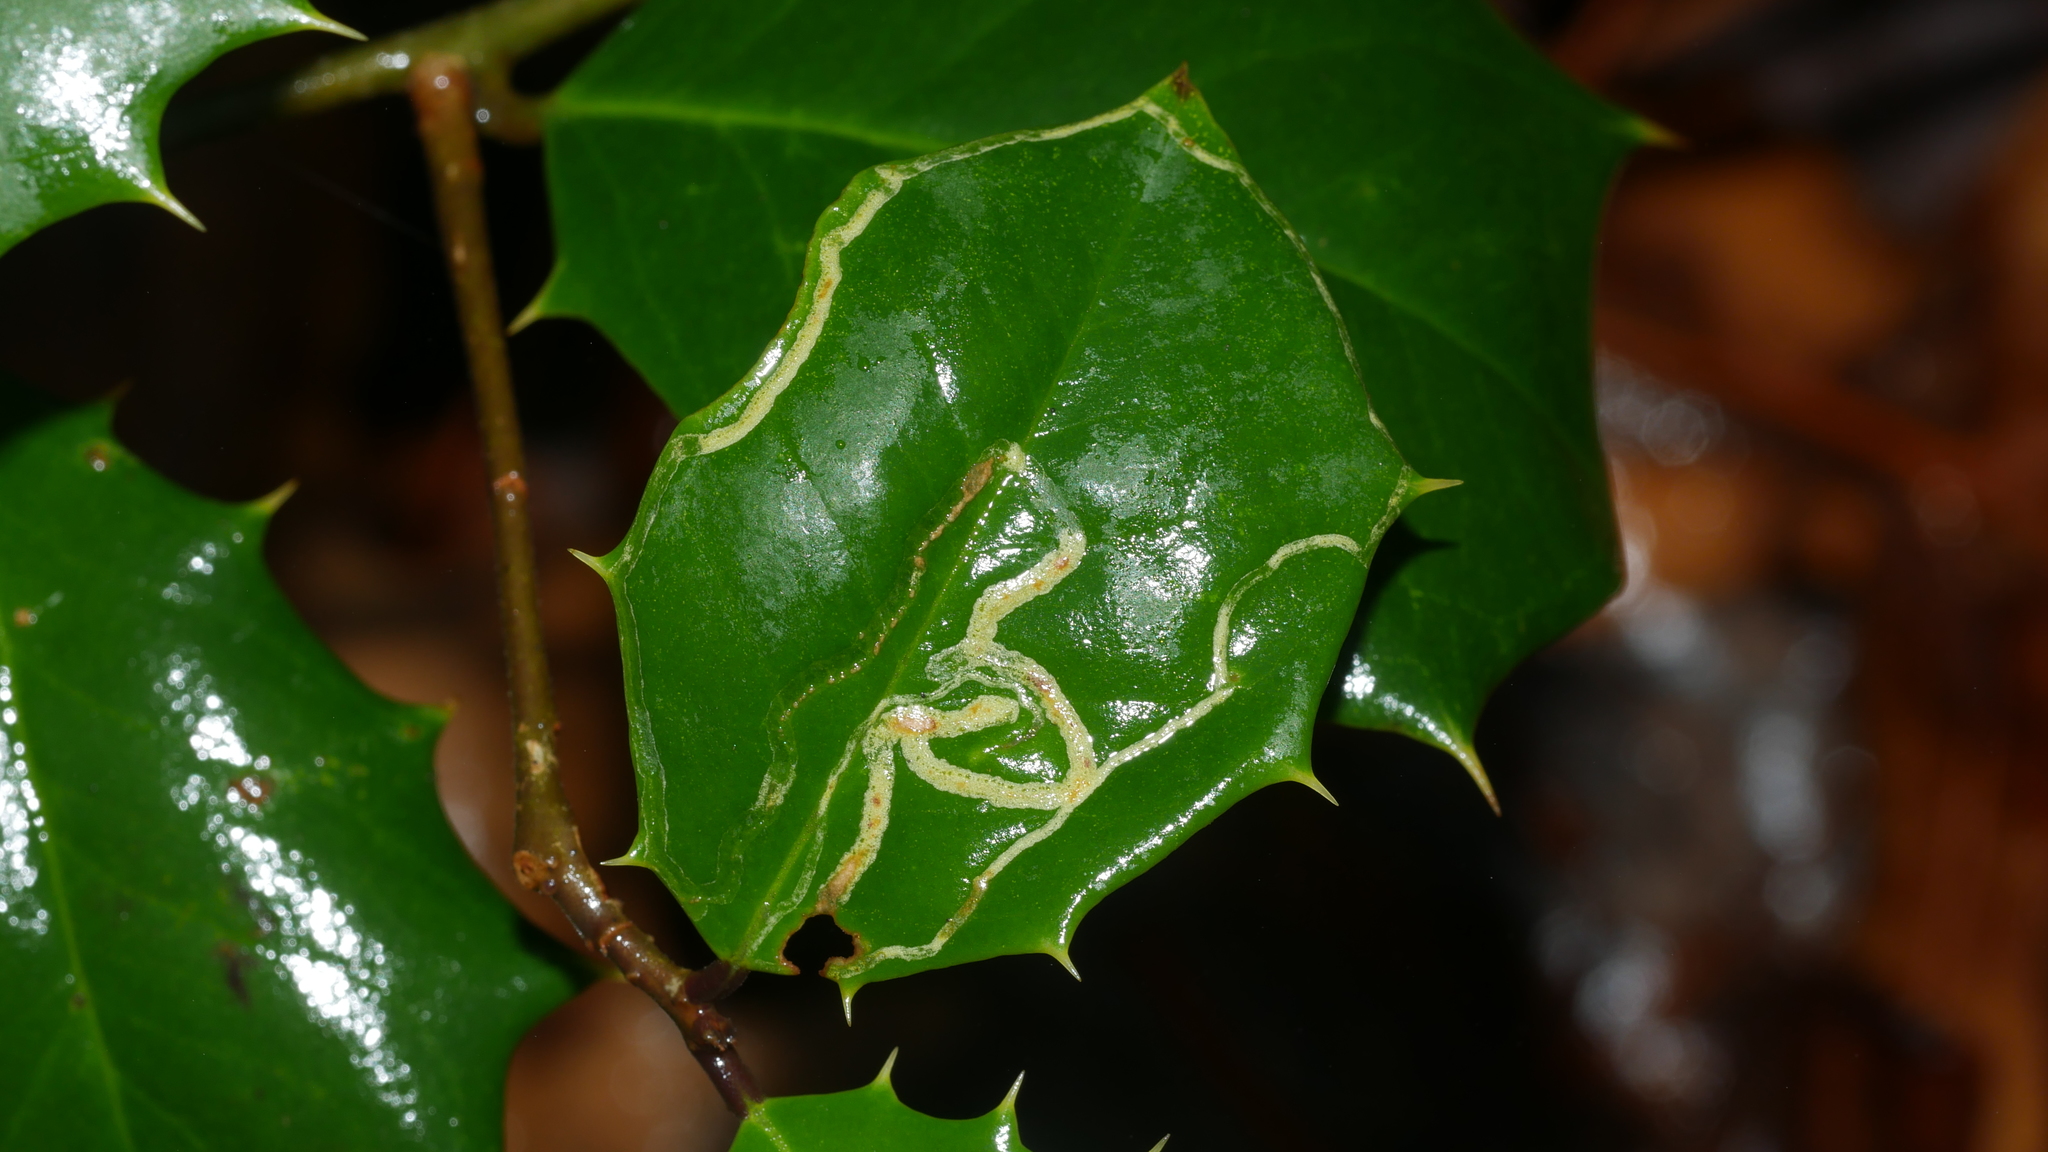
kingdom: Animalia
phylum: Arthropoda
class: Insecta
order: Diptera
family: Agromyzidae
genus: Phytomyza
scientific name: Phytomyza opacae
